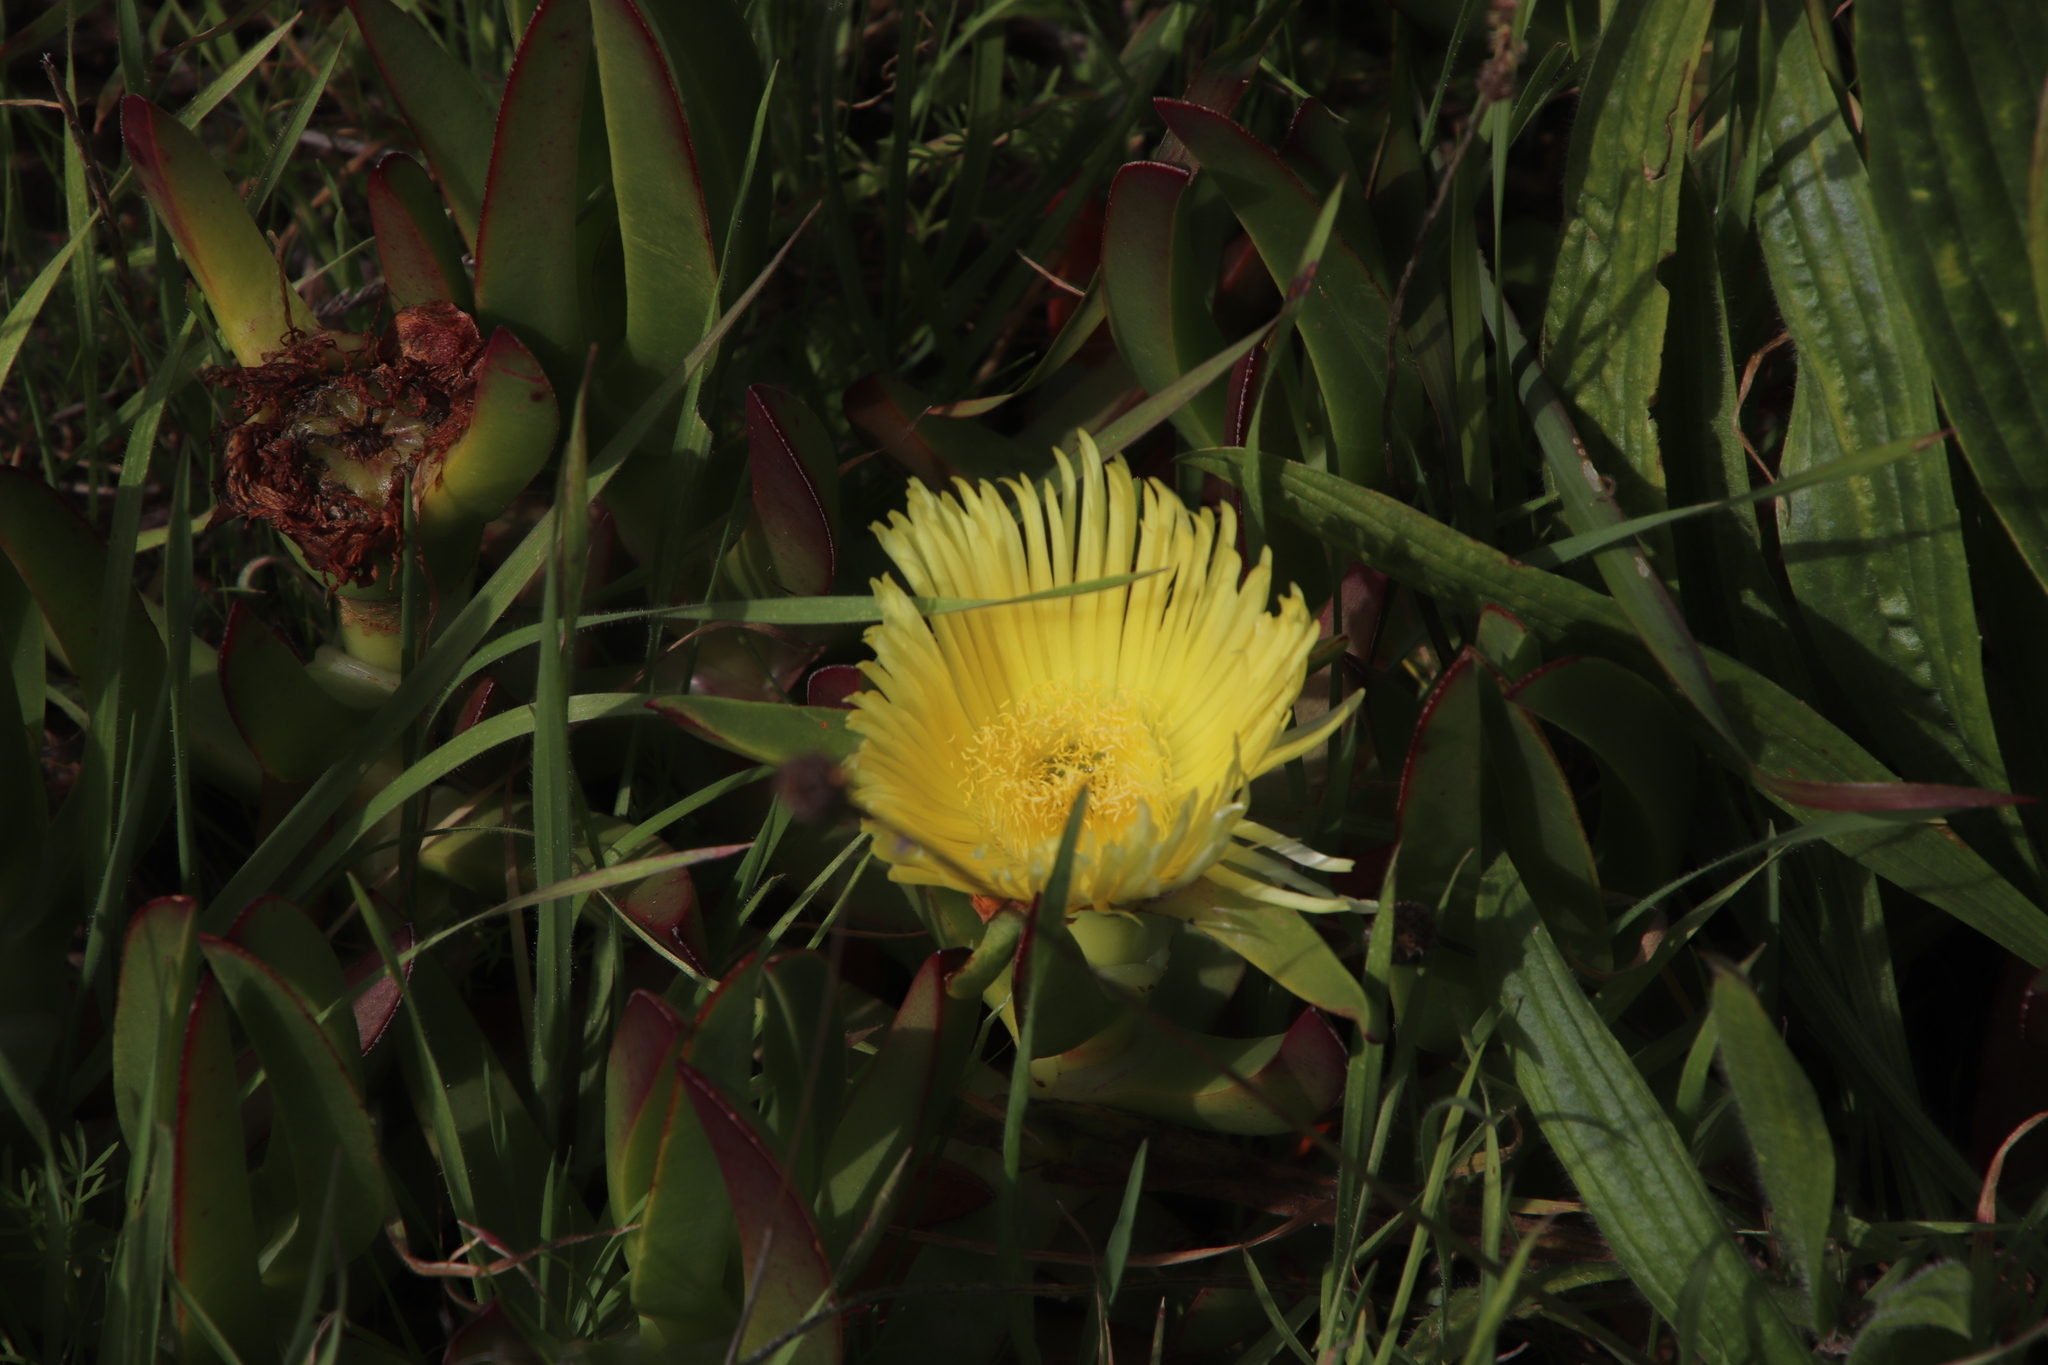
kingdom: Plantae
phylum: Tracheophyta
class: Magnoliopsida
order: Caryophyllales
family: Aizoaceae
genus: Carpobrotus
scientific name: Carpobrotus edulis
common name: Hottentot-fig
